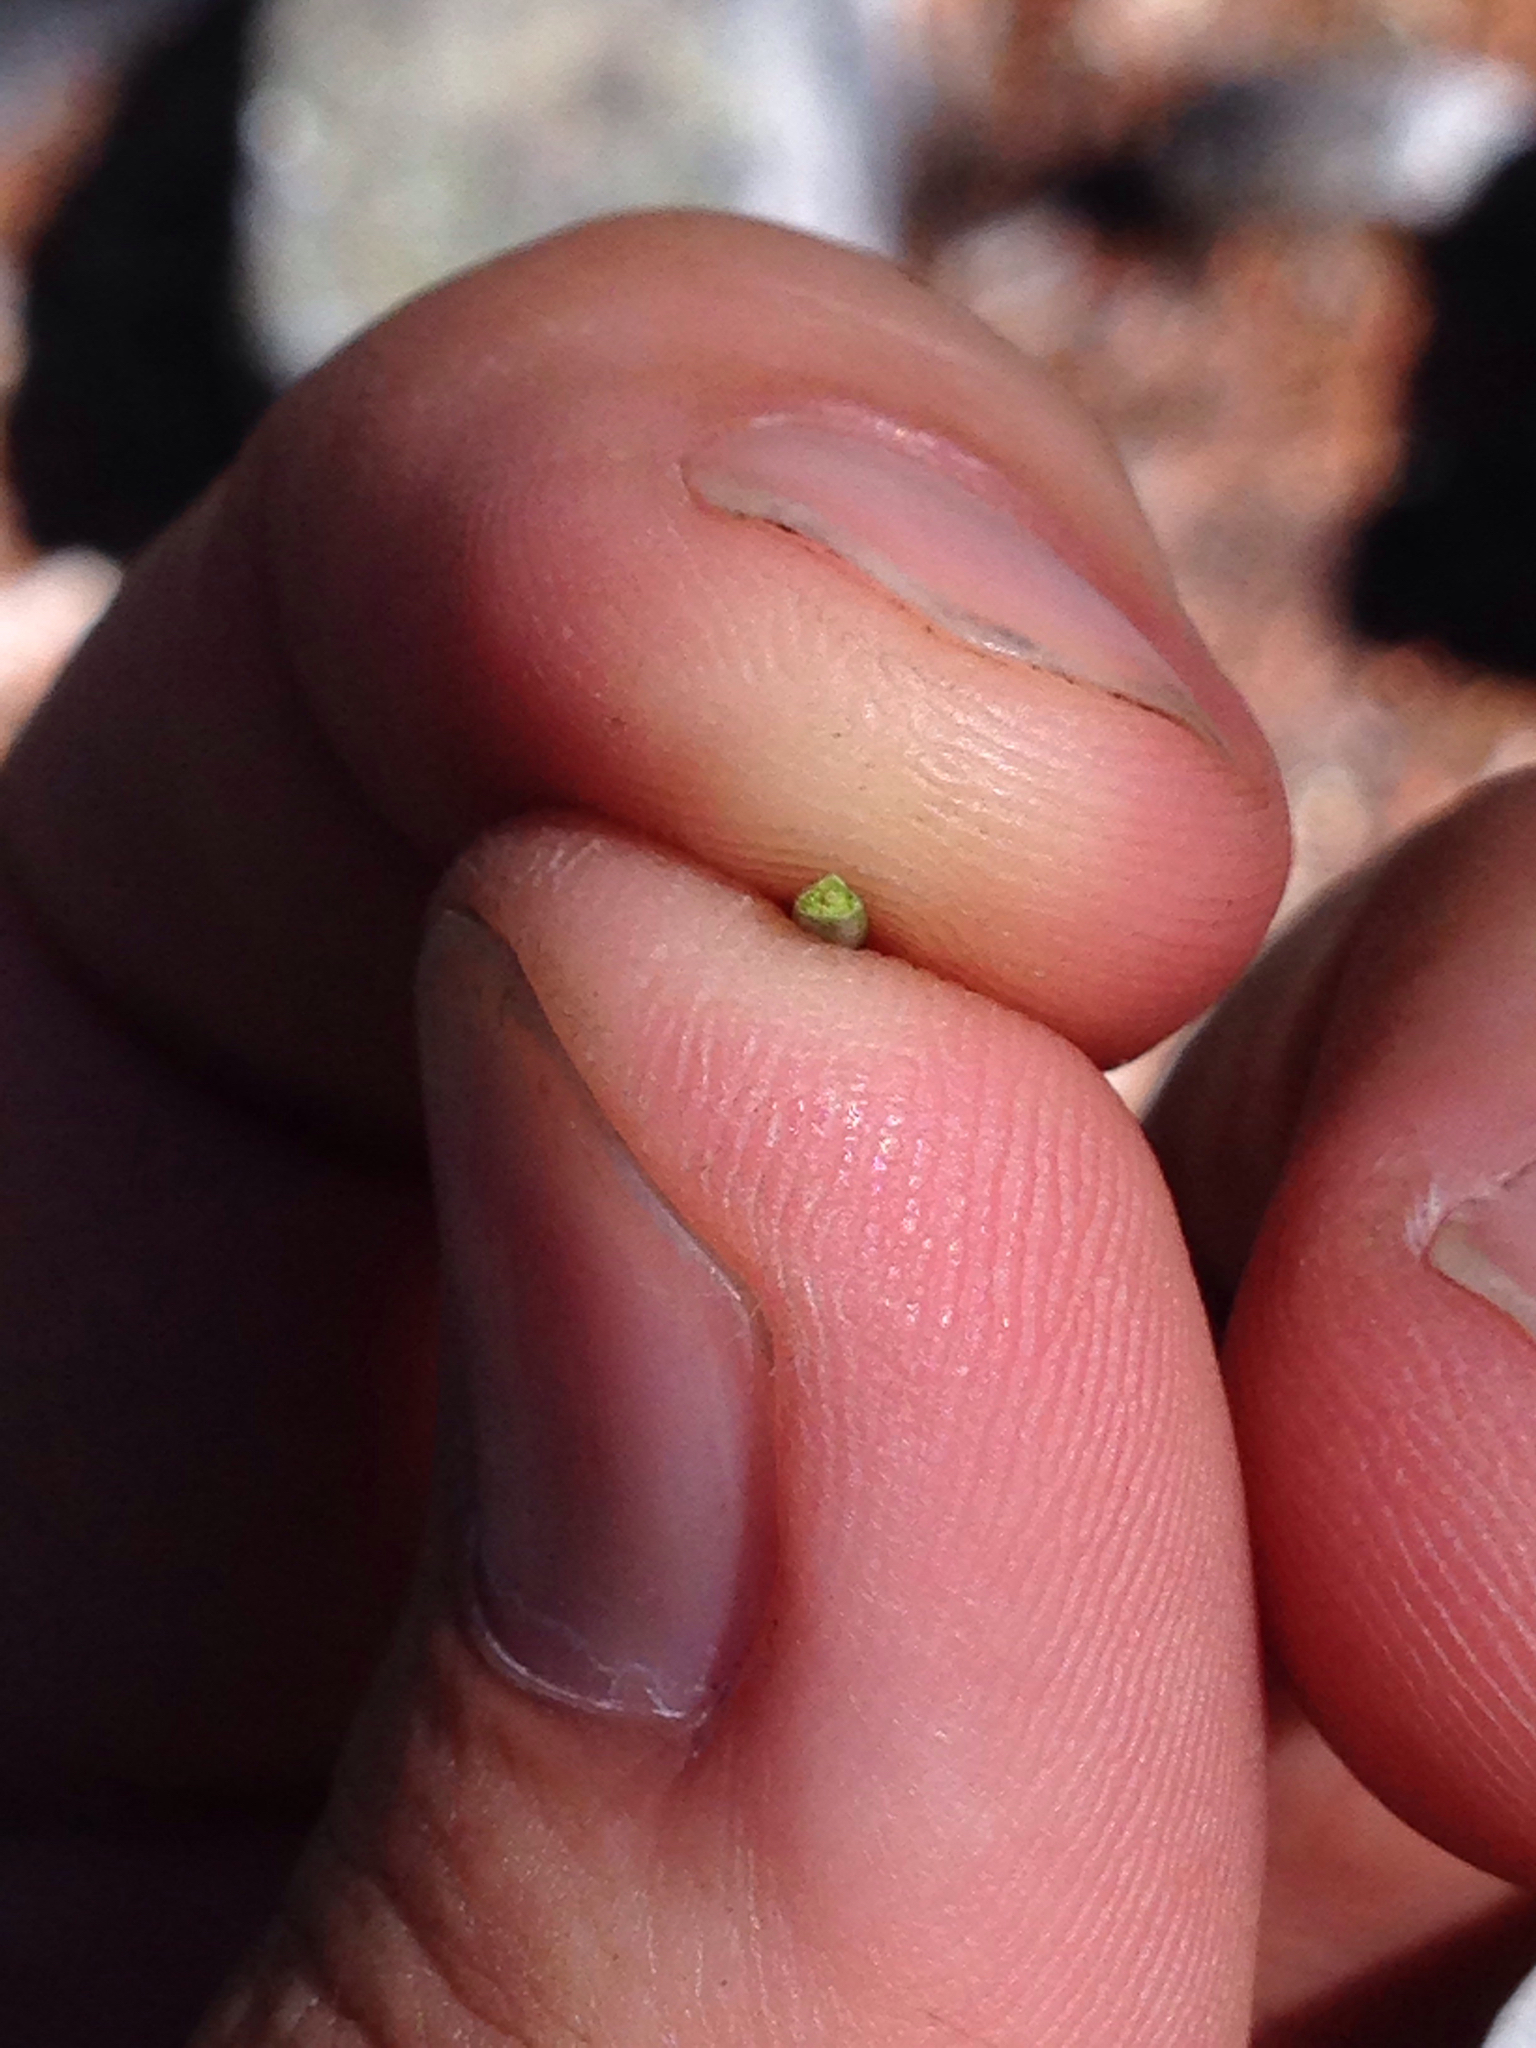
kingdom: Plantae
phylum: Tracheophyta
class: Pinopsida
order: Pinales
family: Pinaceae
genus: Picea
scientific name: Picea breweriana
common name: Brewer's spruce
